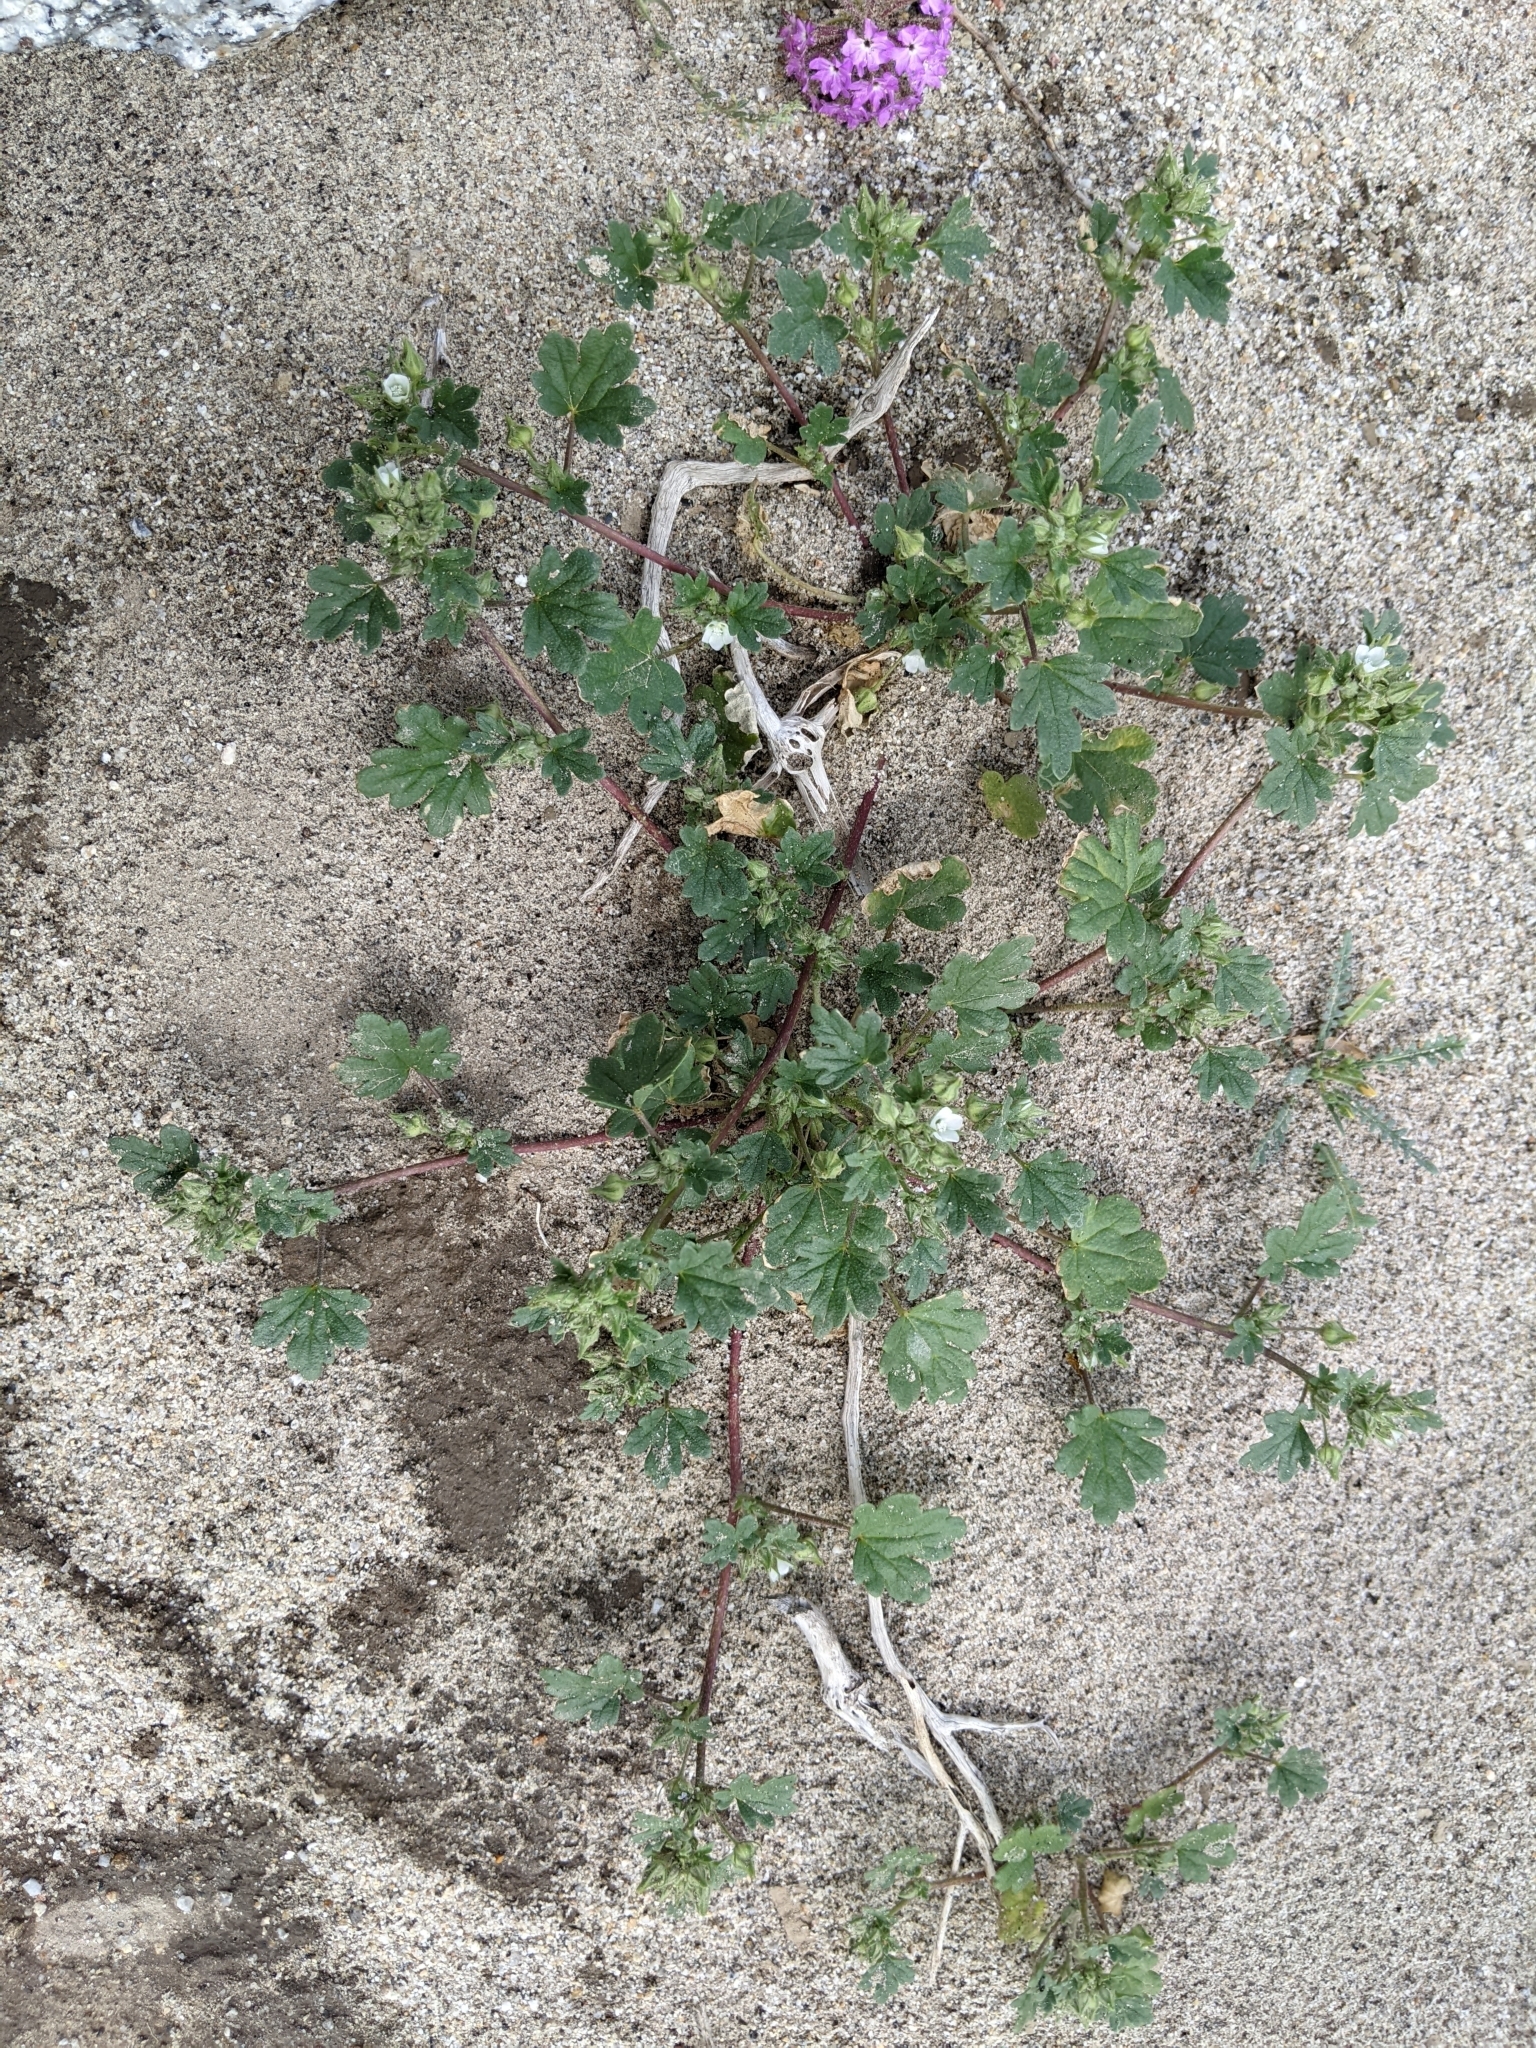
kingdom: Plantae
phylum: Tracheophyta
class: Magnoliopsida
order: Malvales
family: Malvaceae
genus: Eremalche
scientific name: Eremalche exilis
